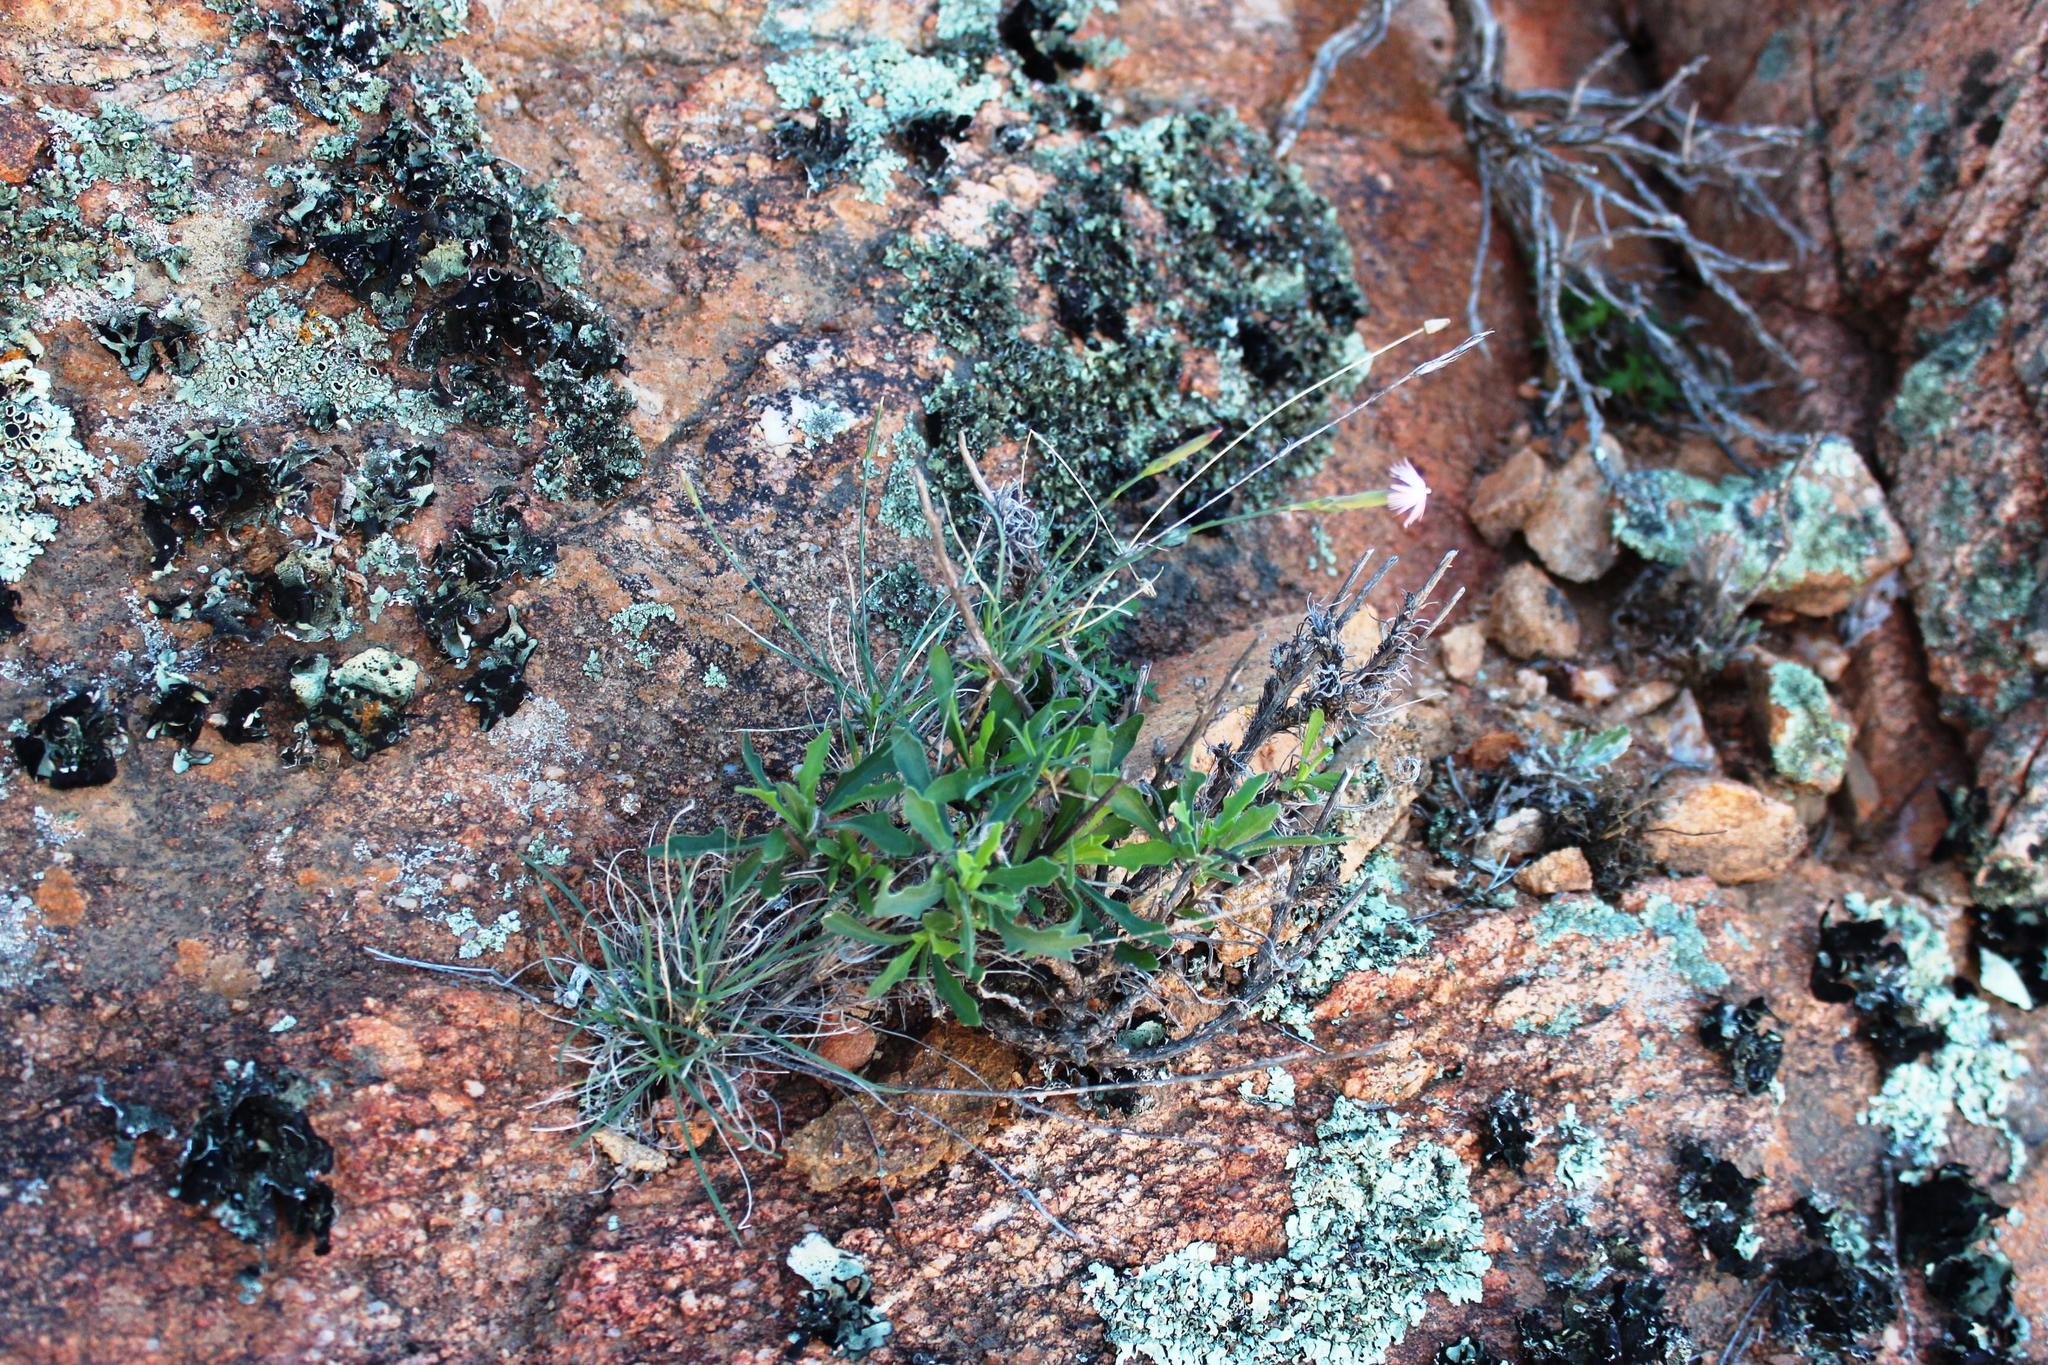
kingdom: Plantae
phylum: Tracheophyta
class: Magnoliopsida
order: Caryophyllales
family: Caryophyllaceae
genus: Dianthus
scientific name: Dianthus namaensis
